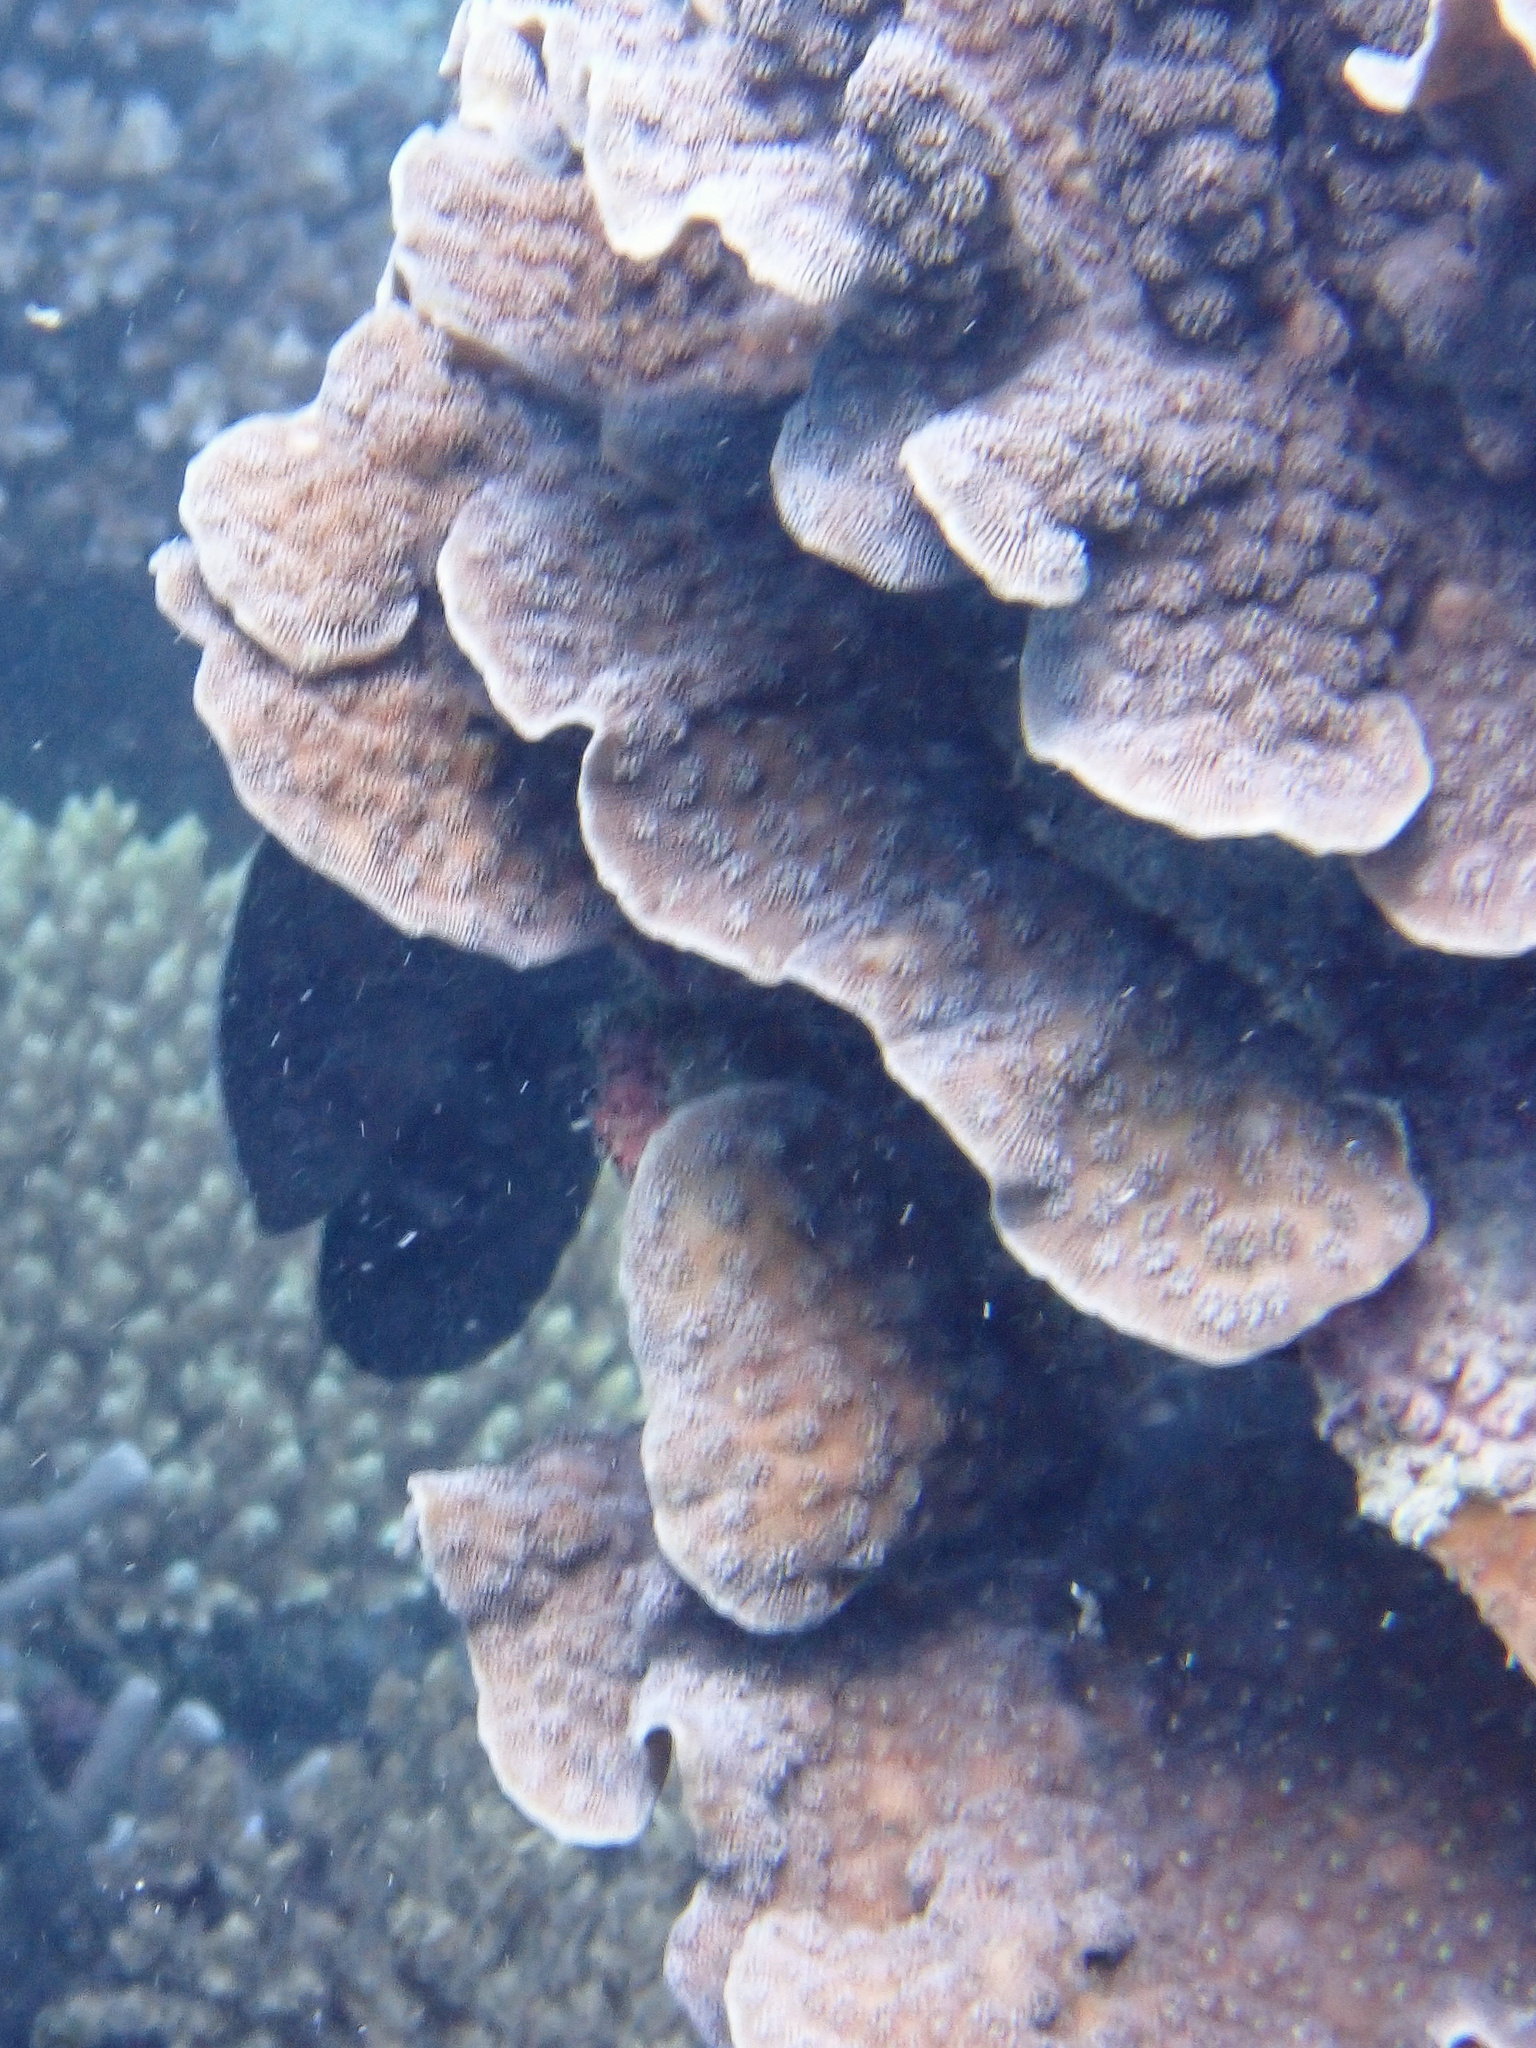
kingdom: Animalia
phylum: Cnidaria
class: Anthozoa
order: Scleractinia
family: Merulinidae
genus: Echinopora
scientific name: Echinopora lamellosa
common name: Hedgehog coral
